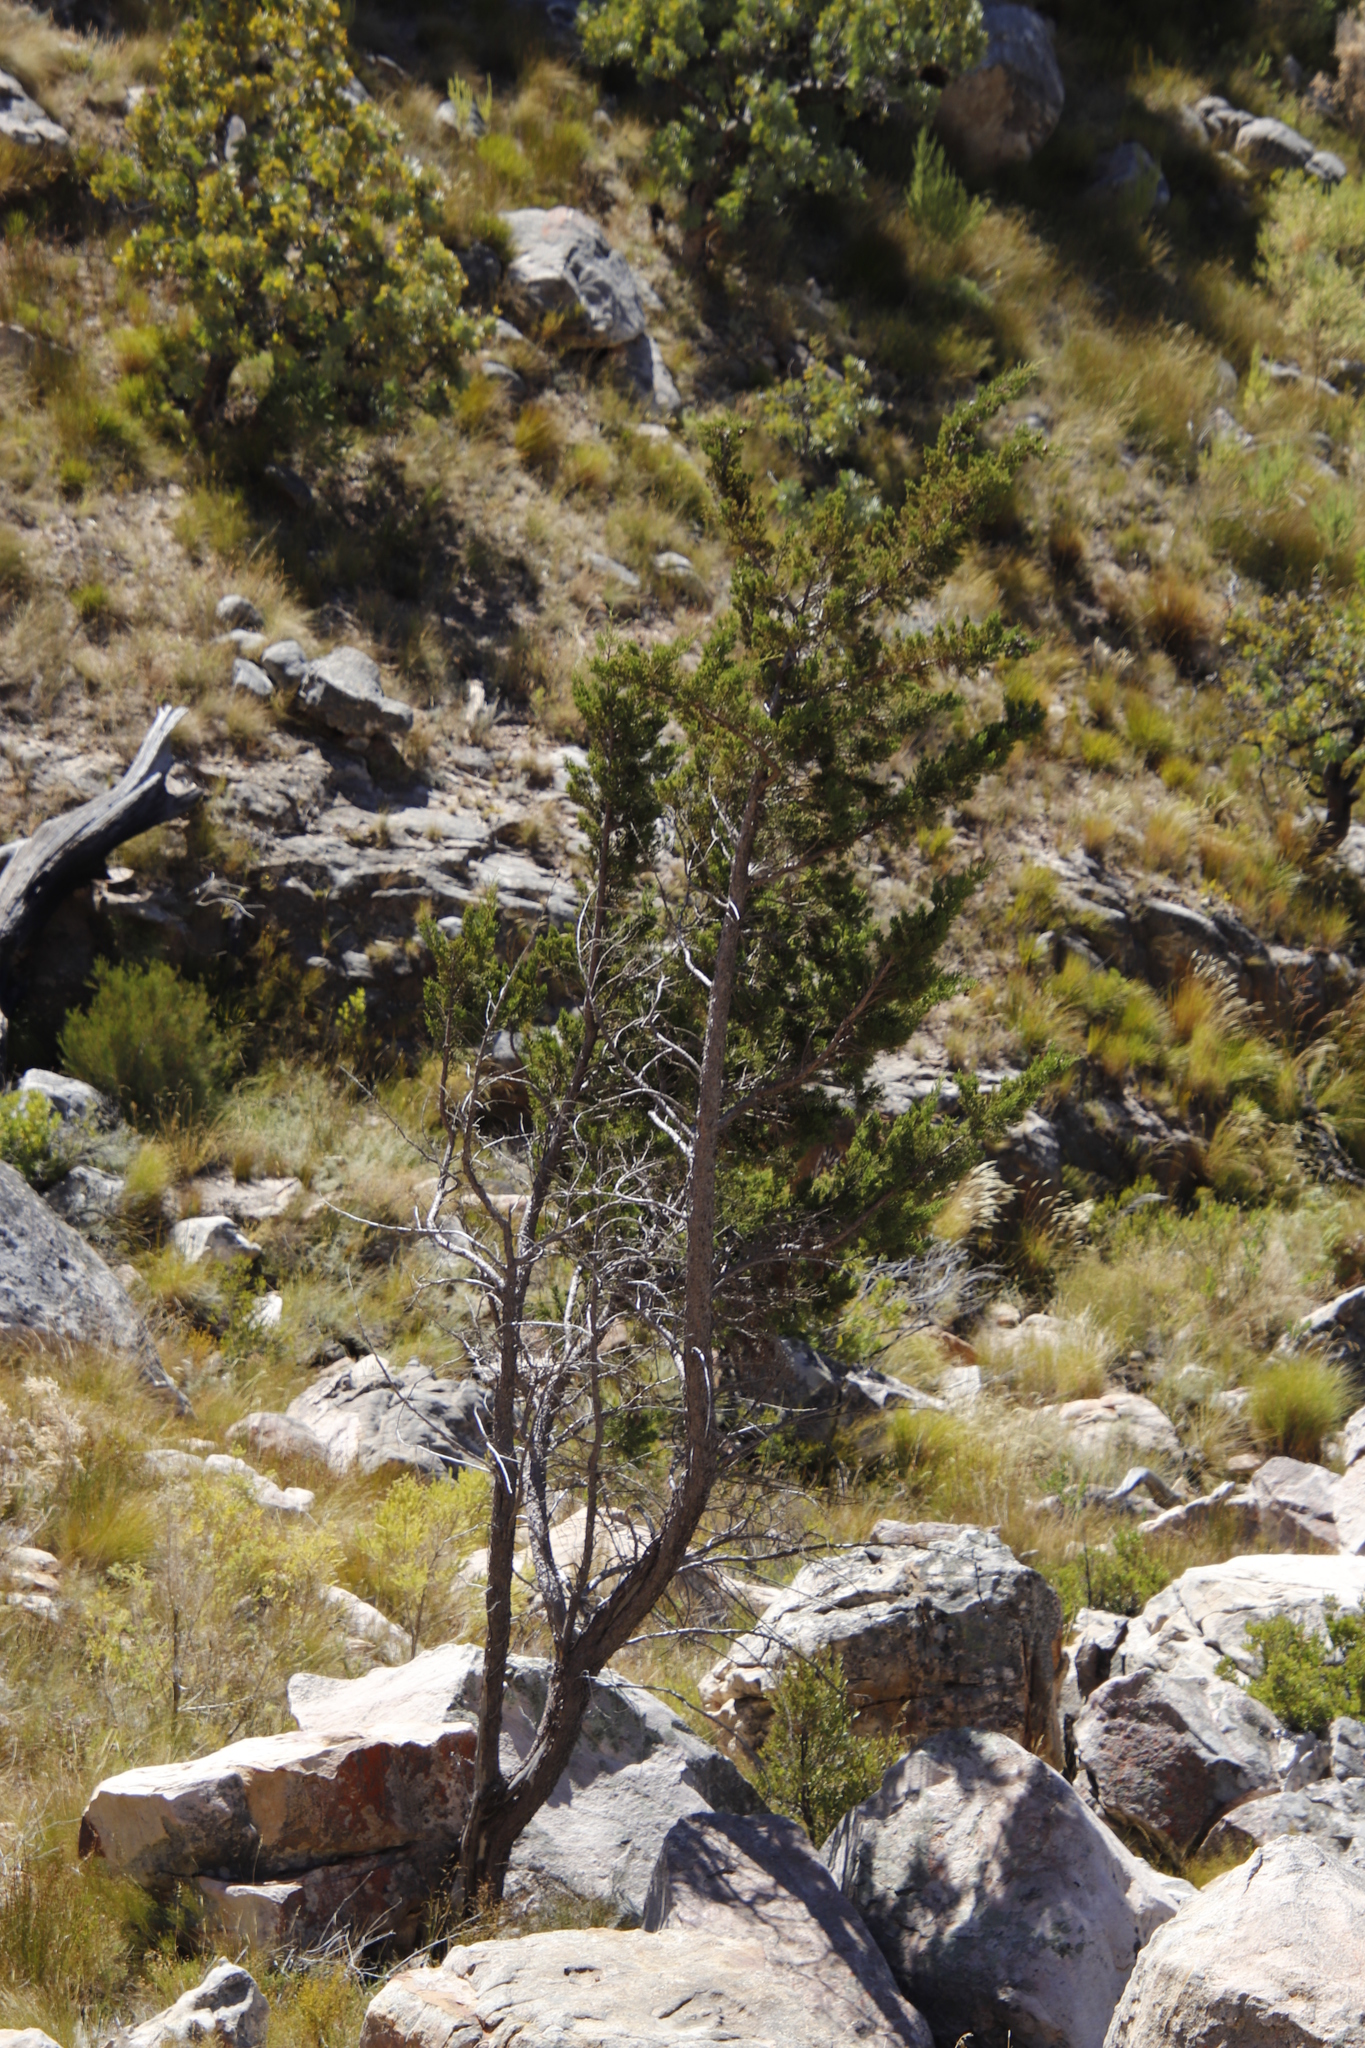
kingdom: Plantae
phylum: Tracheophyta
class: Pinopsida
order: Pinales
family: Cupressaceae
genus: Widdringtonia
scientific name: Widdringtonia nodiflora
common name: Cape cypress
